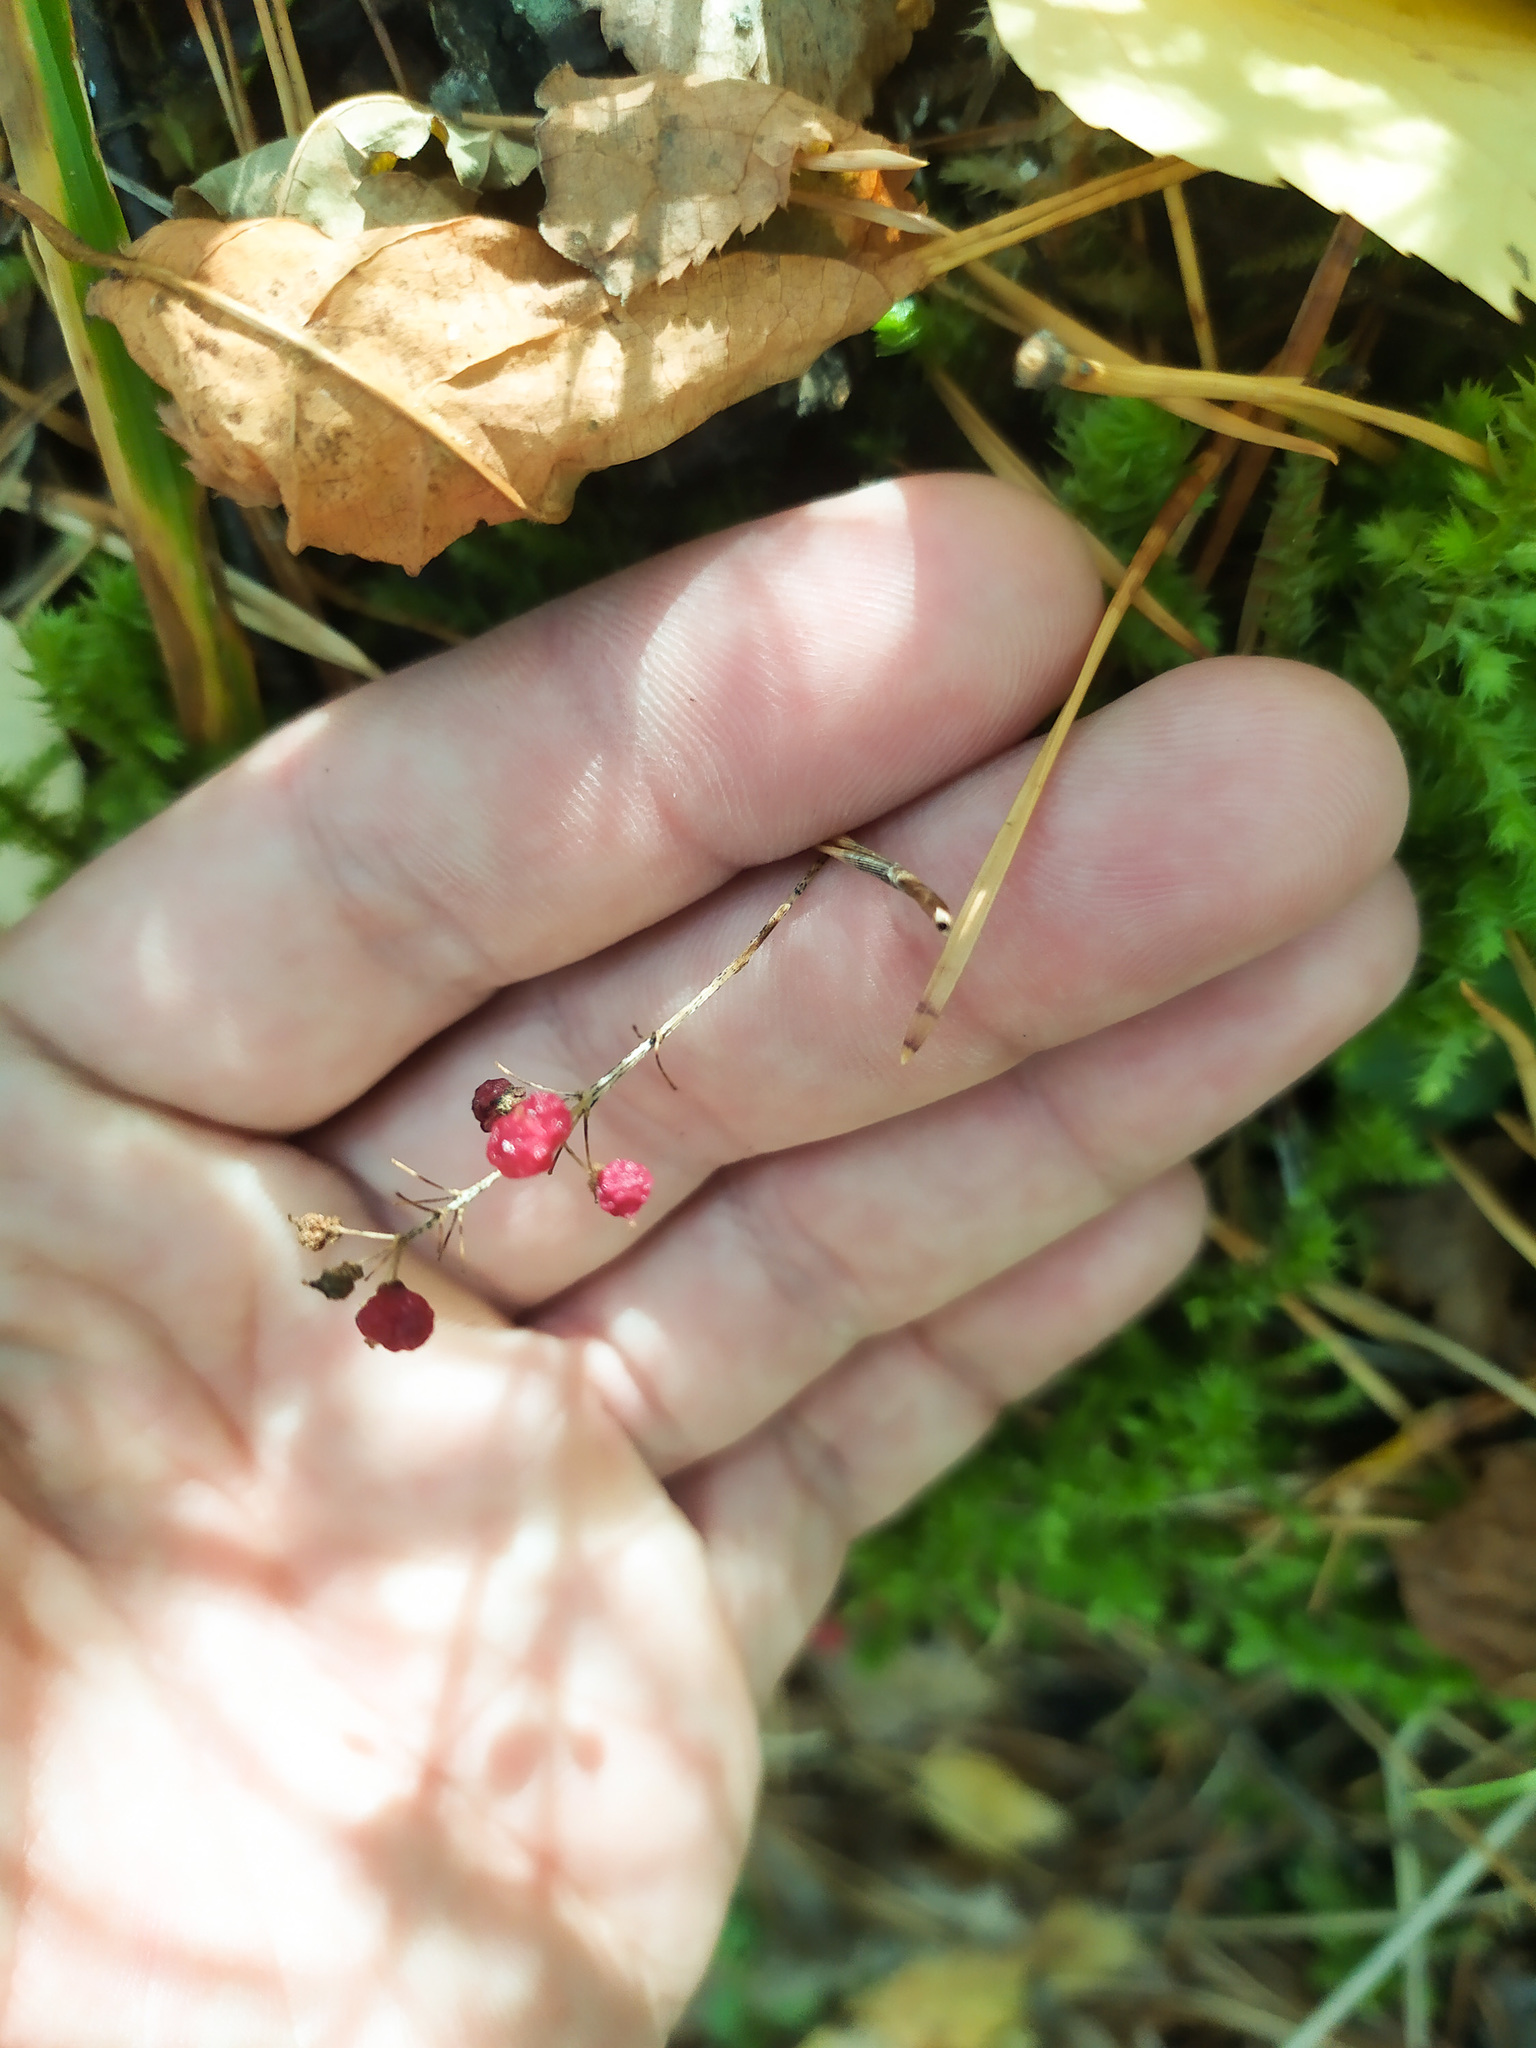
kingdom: Plantae
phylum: Tracheophyta
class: Liliopsida
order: Asparagales
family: Asparagaceae
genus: Maianthemum
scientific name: Maianthemum bifolium
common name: May lily
